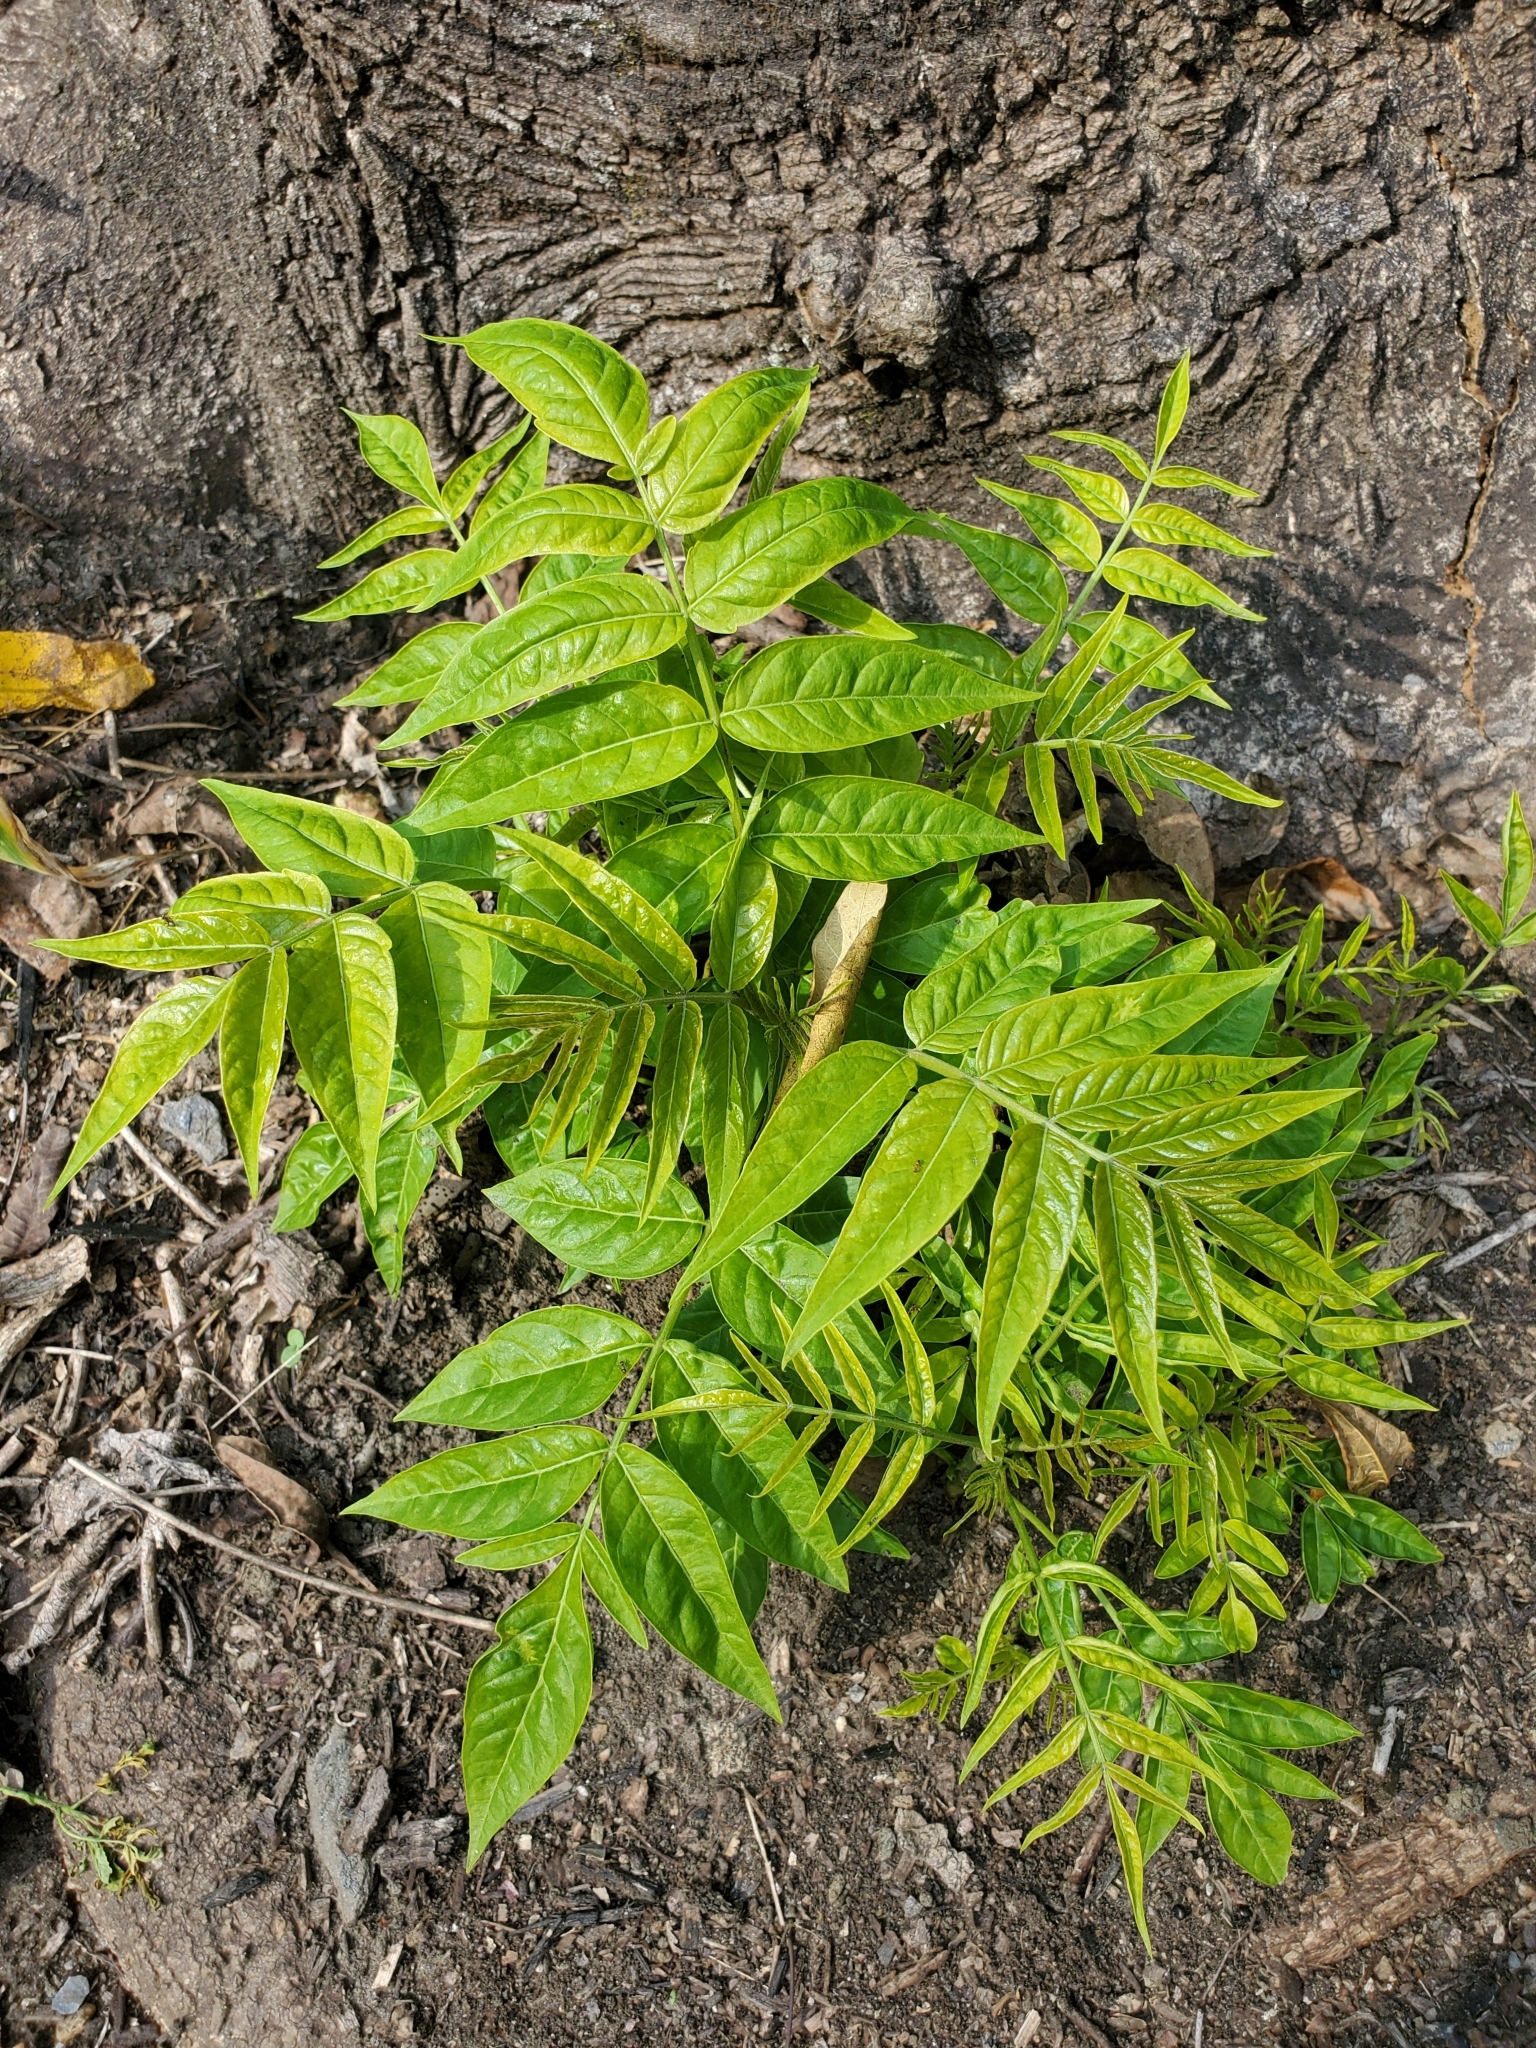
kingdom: Plantae
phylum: Tracheophyta
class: Magnoliopsida
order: Sapindales
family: Simaroubaceae
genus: Ailanthus
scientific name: Ailanthus altissima
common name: Tree-of-heaven
